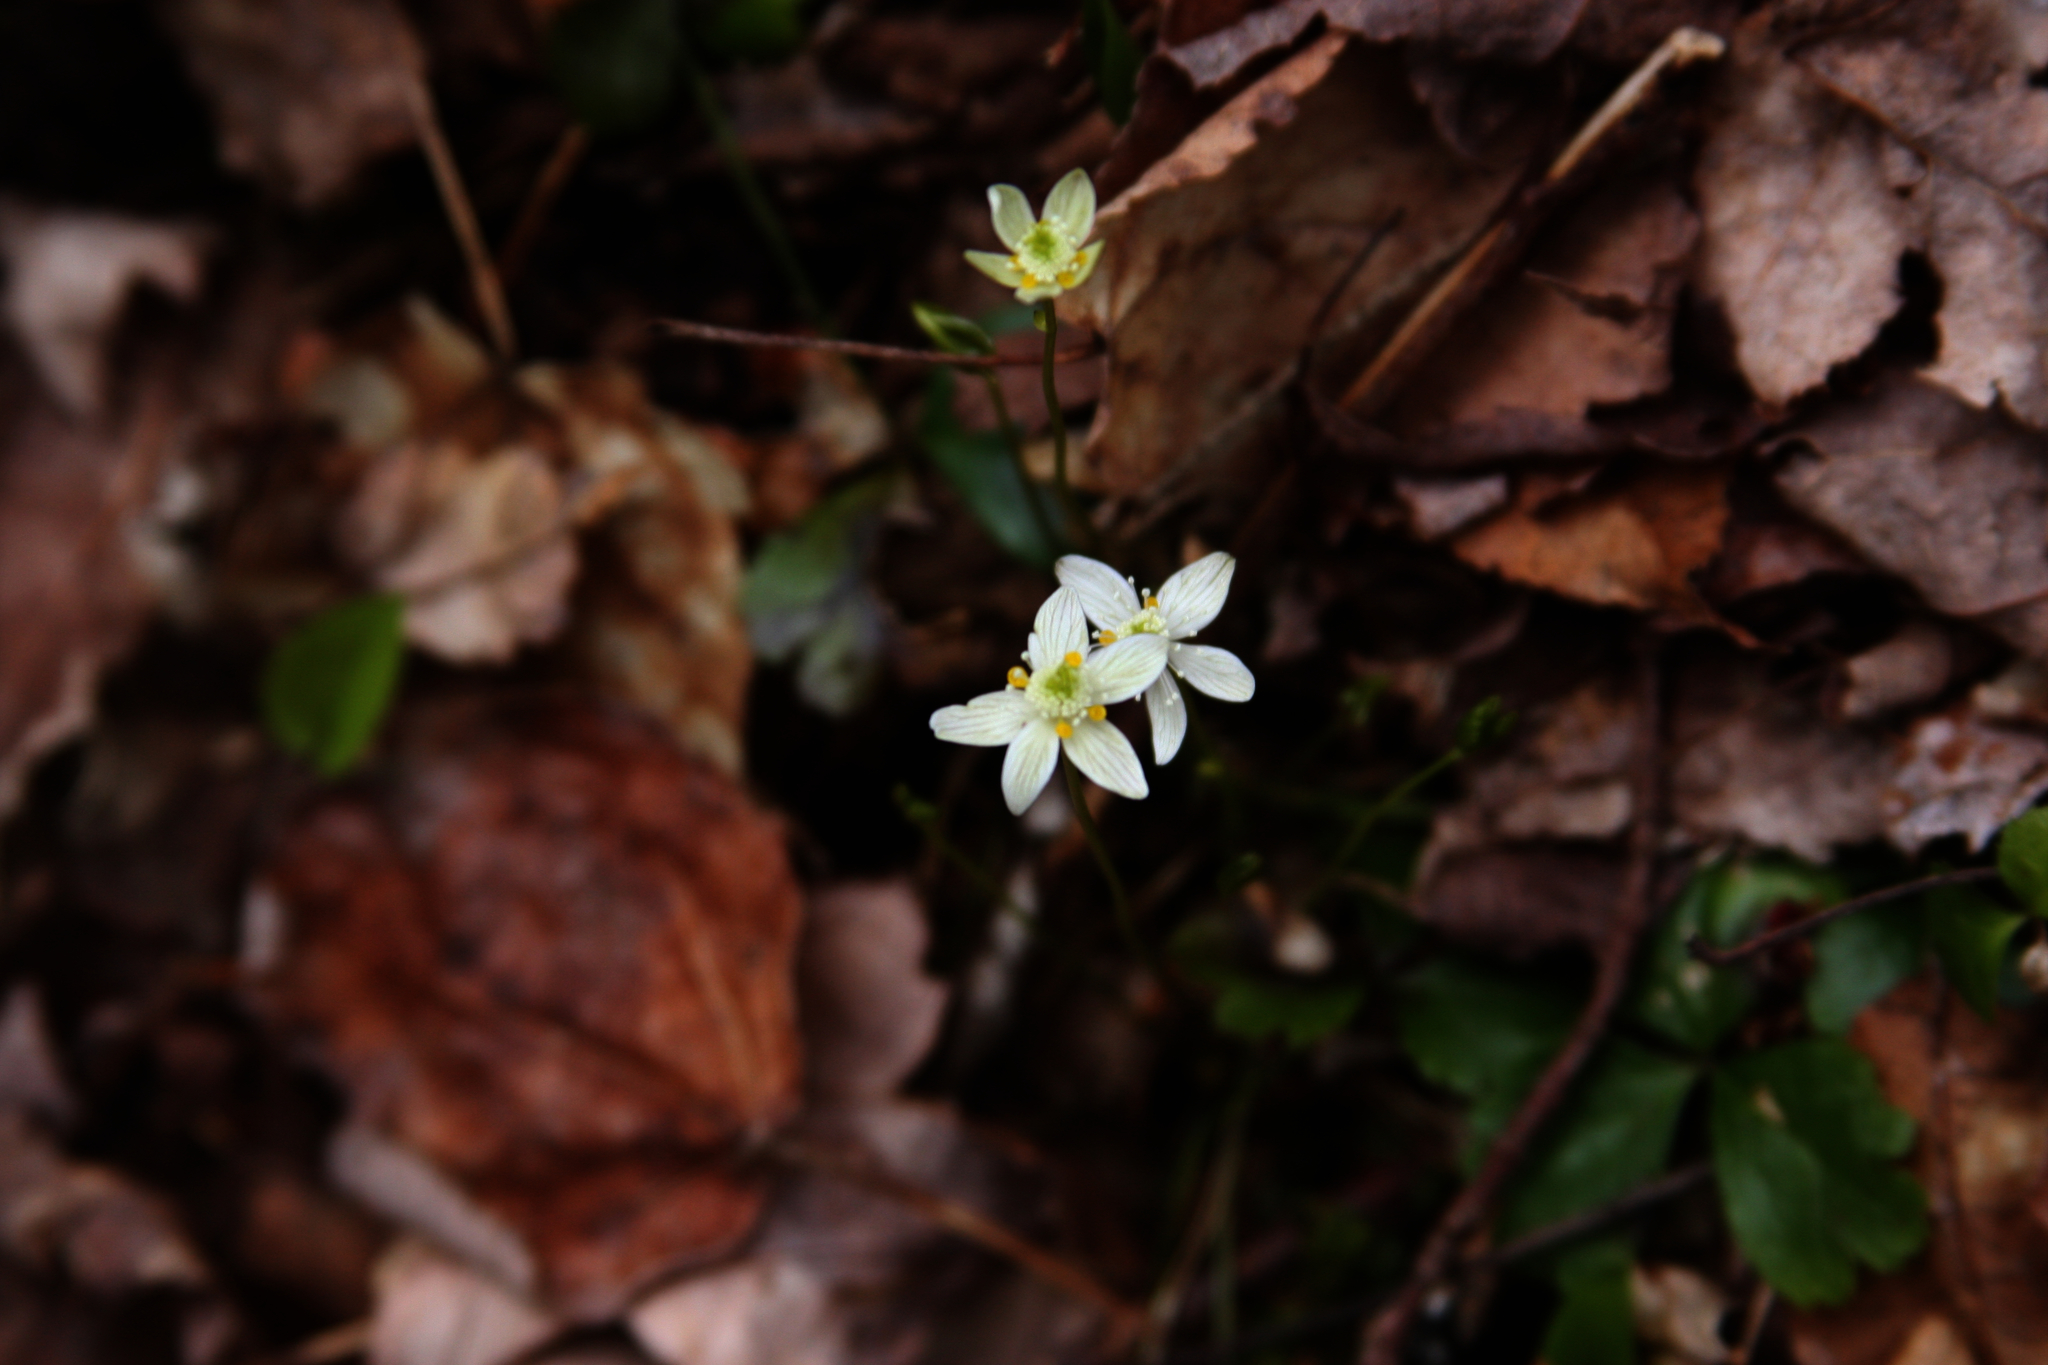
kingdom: Plantae
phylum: Tracheophyta
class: Magnoliopsida
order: Ranunculales
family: Ranunculaceae
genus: Coptis
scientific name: Coptis trifolia
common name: Canker-root
